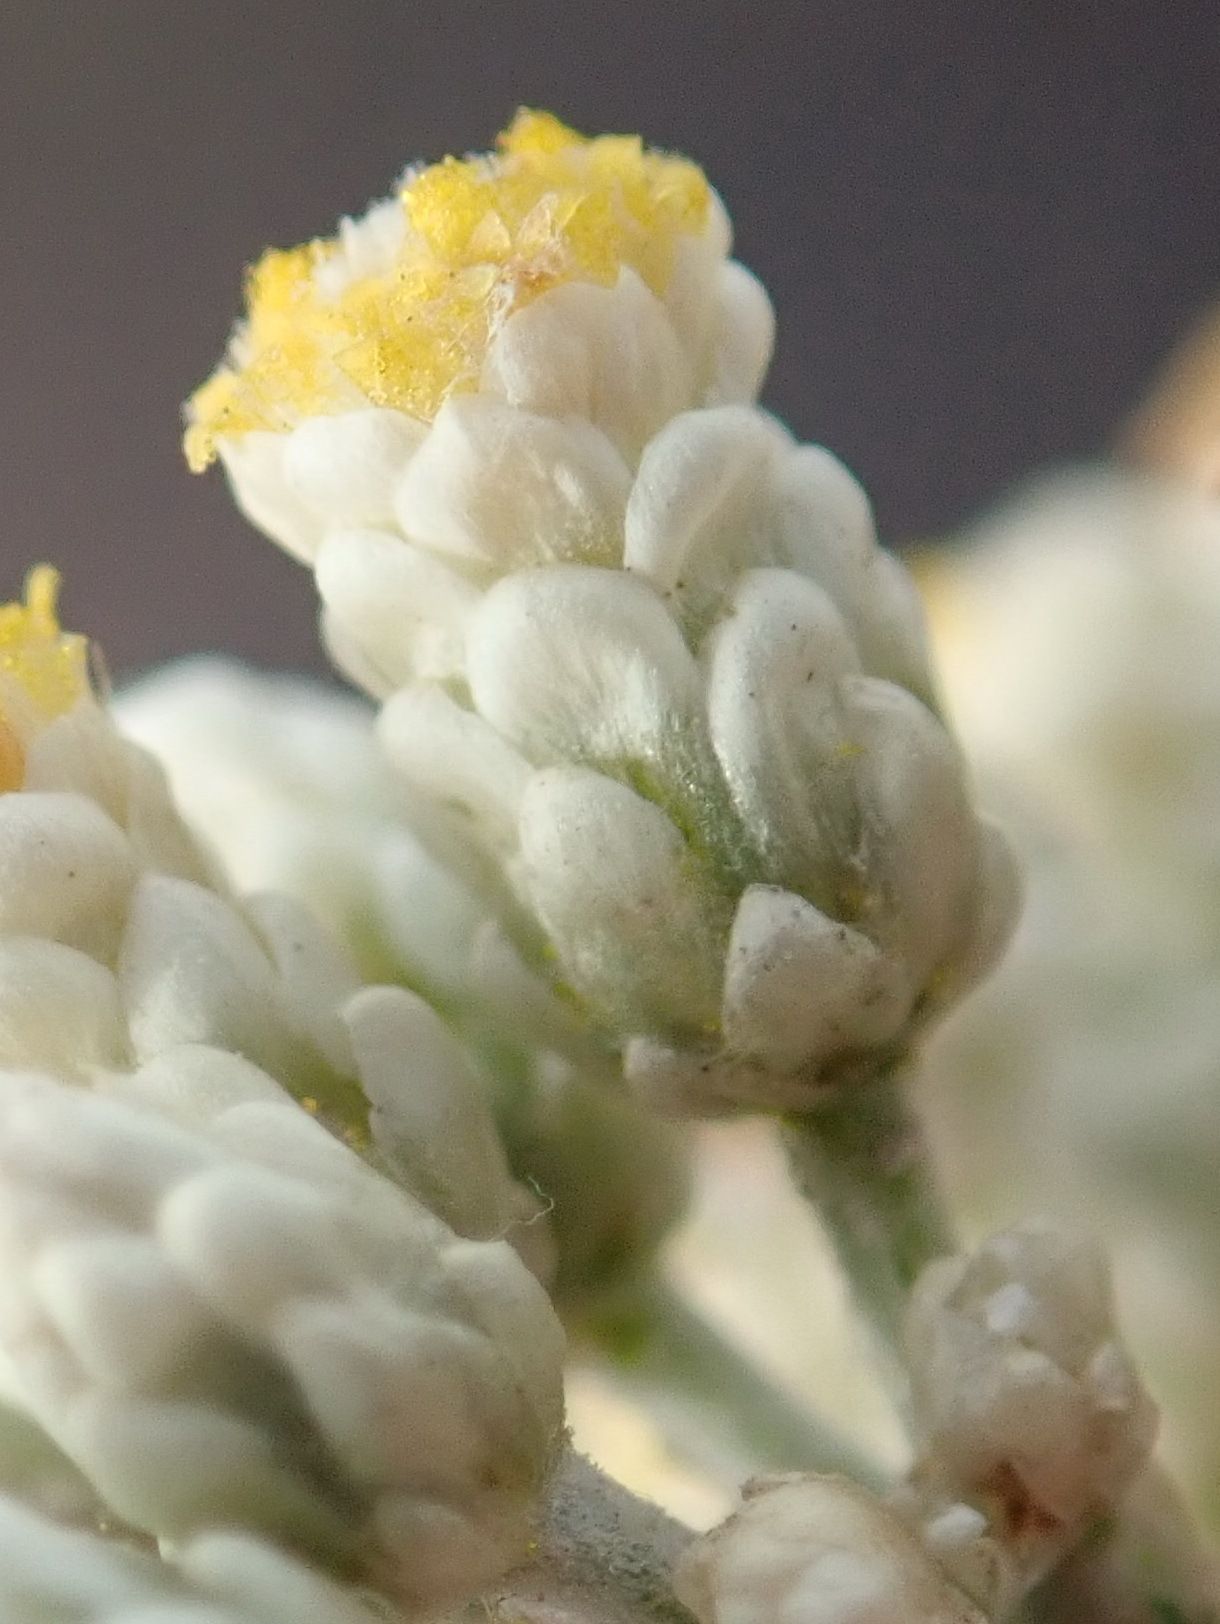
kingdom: Plantae
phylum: Tracheophyta
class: Magnoliopsida
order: Asterales
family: Asteraceae
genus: Helichrysum
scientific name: Helichrysum zeyheri
